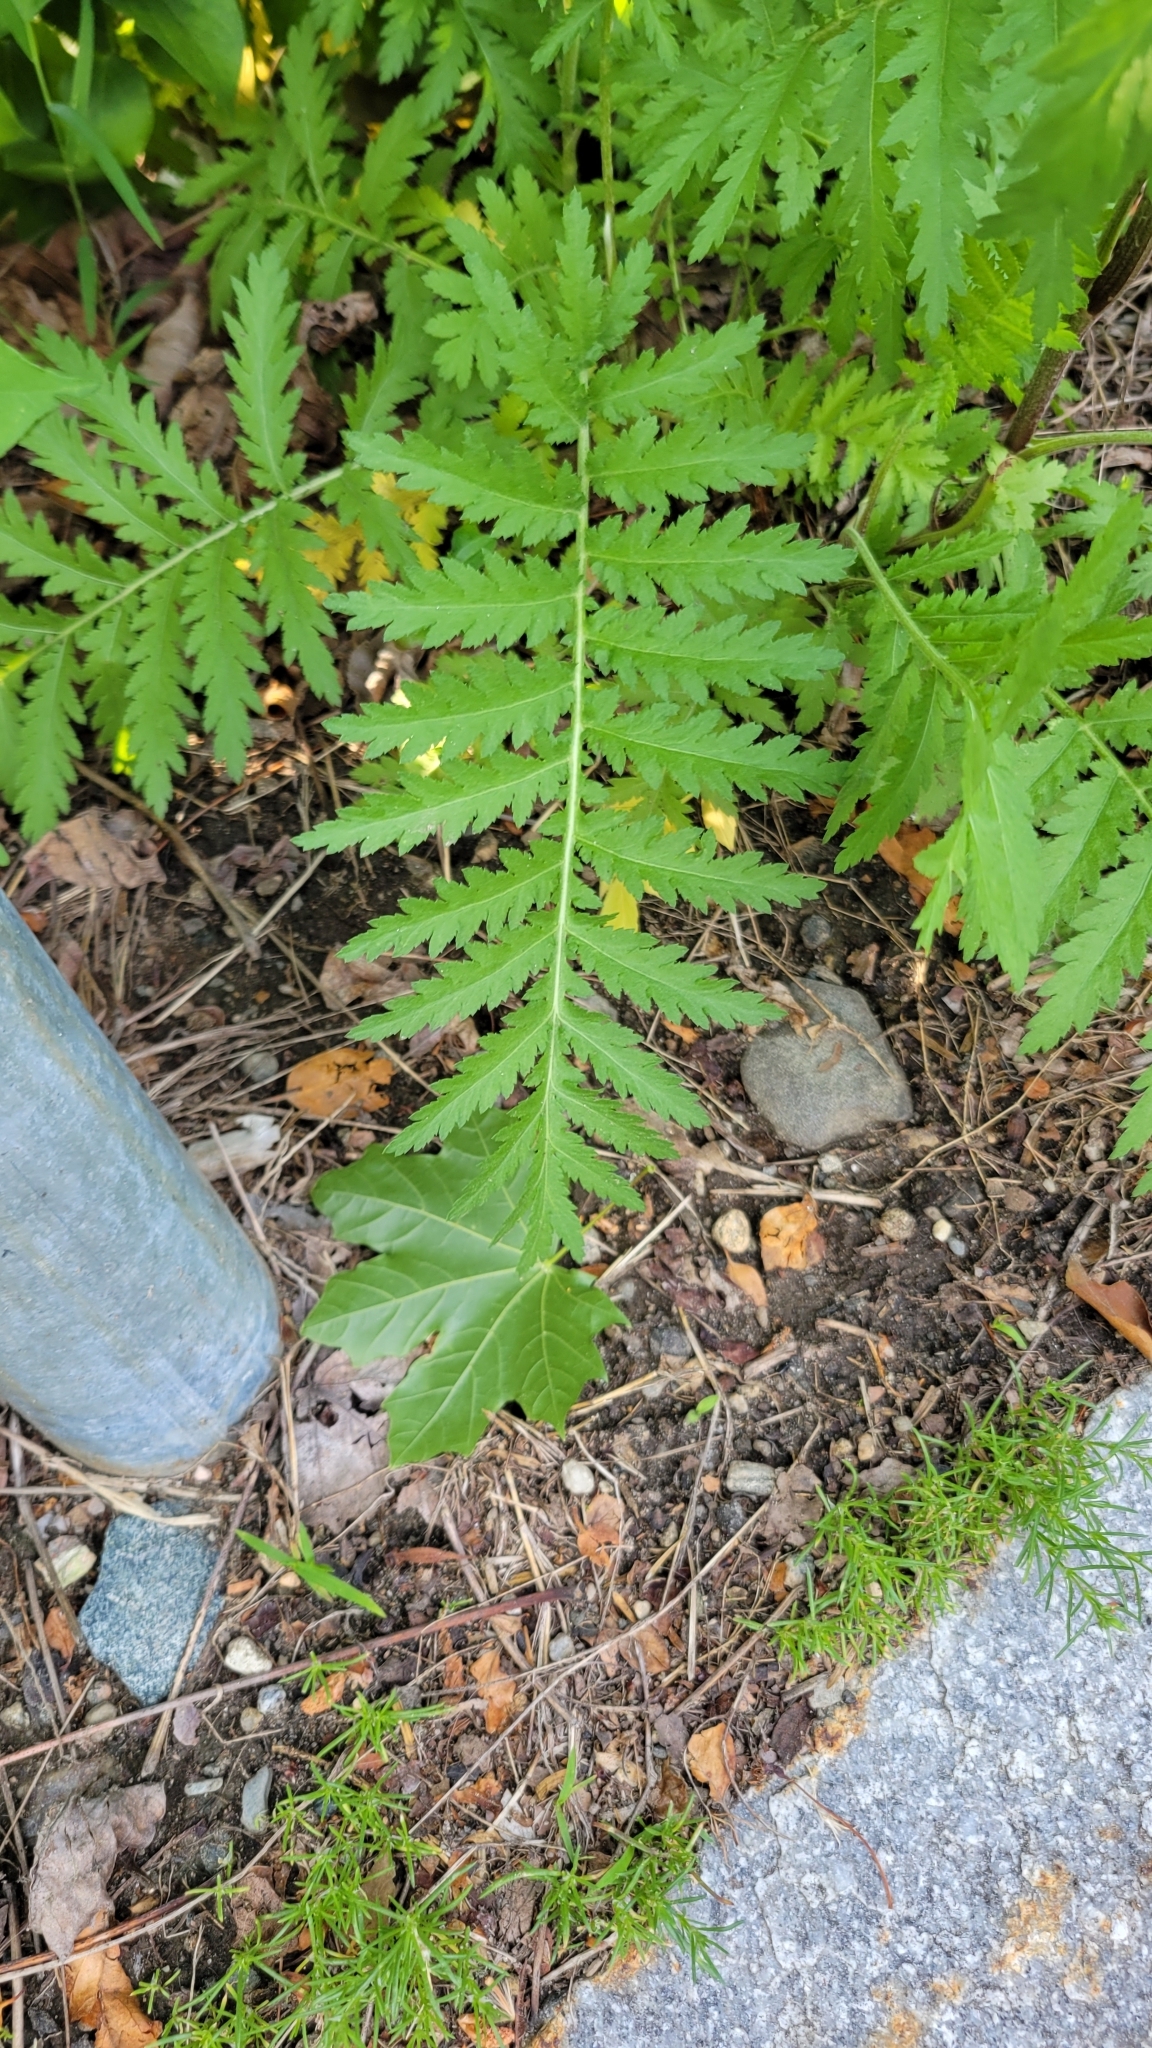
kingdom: Plantae
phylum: Tracheophyta
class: Magnoliopsida
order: Asterales
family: Asteraceae
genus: Tanacetum
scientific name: Tanacetum vulgare
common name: Common tansy
